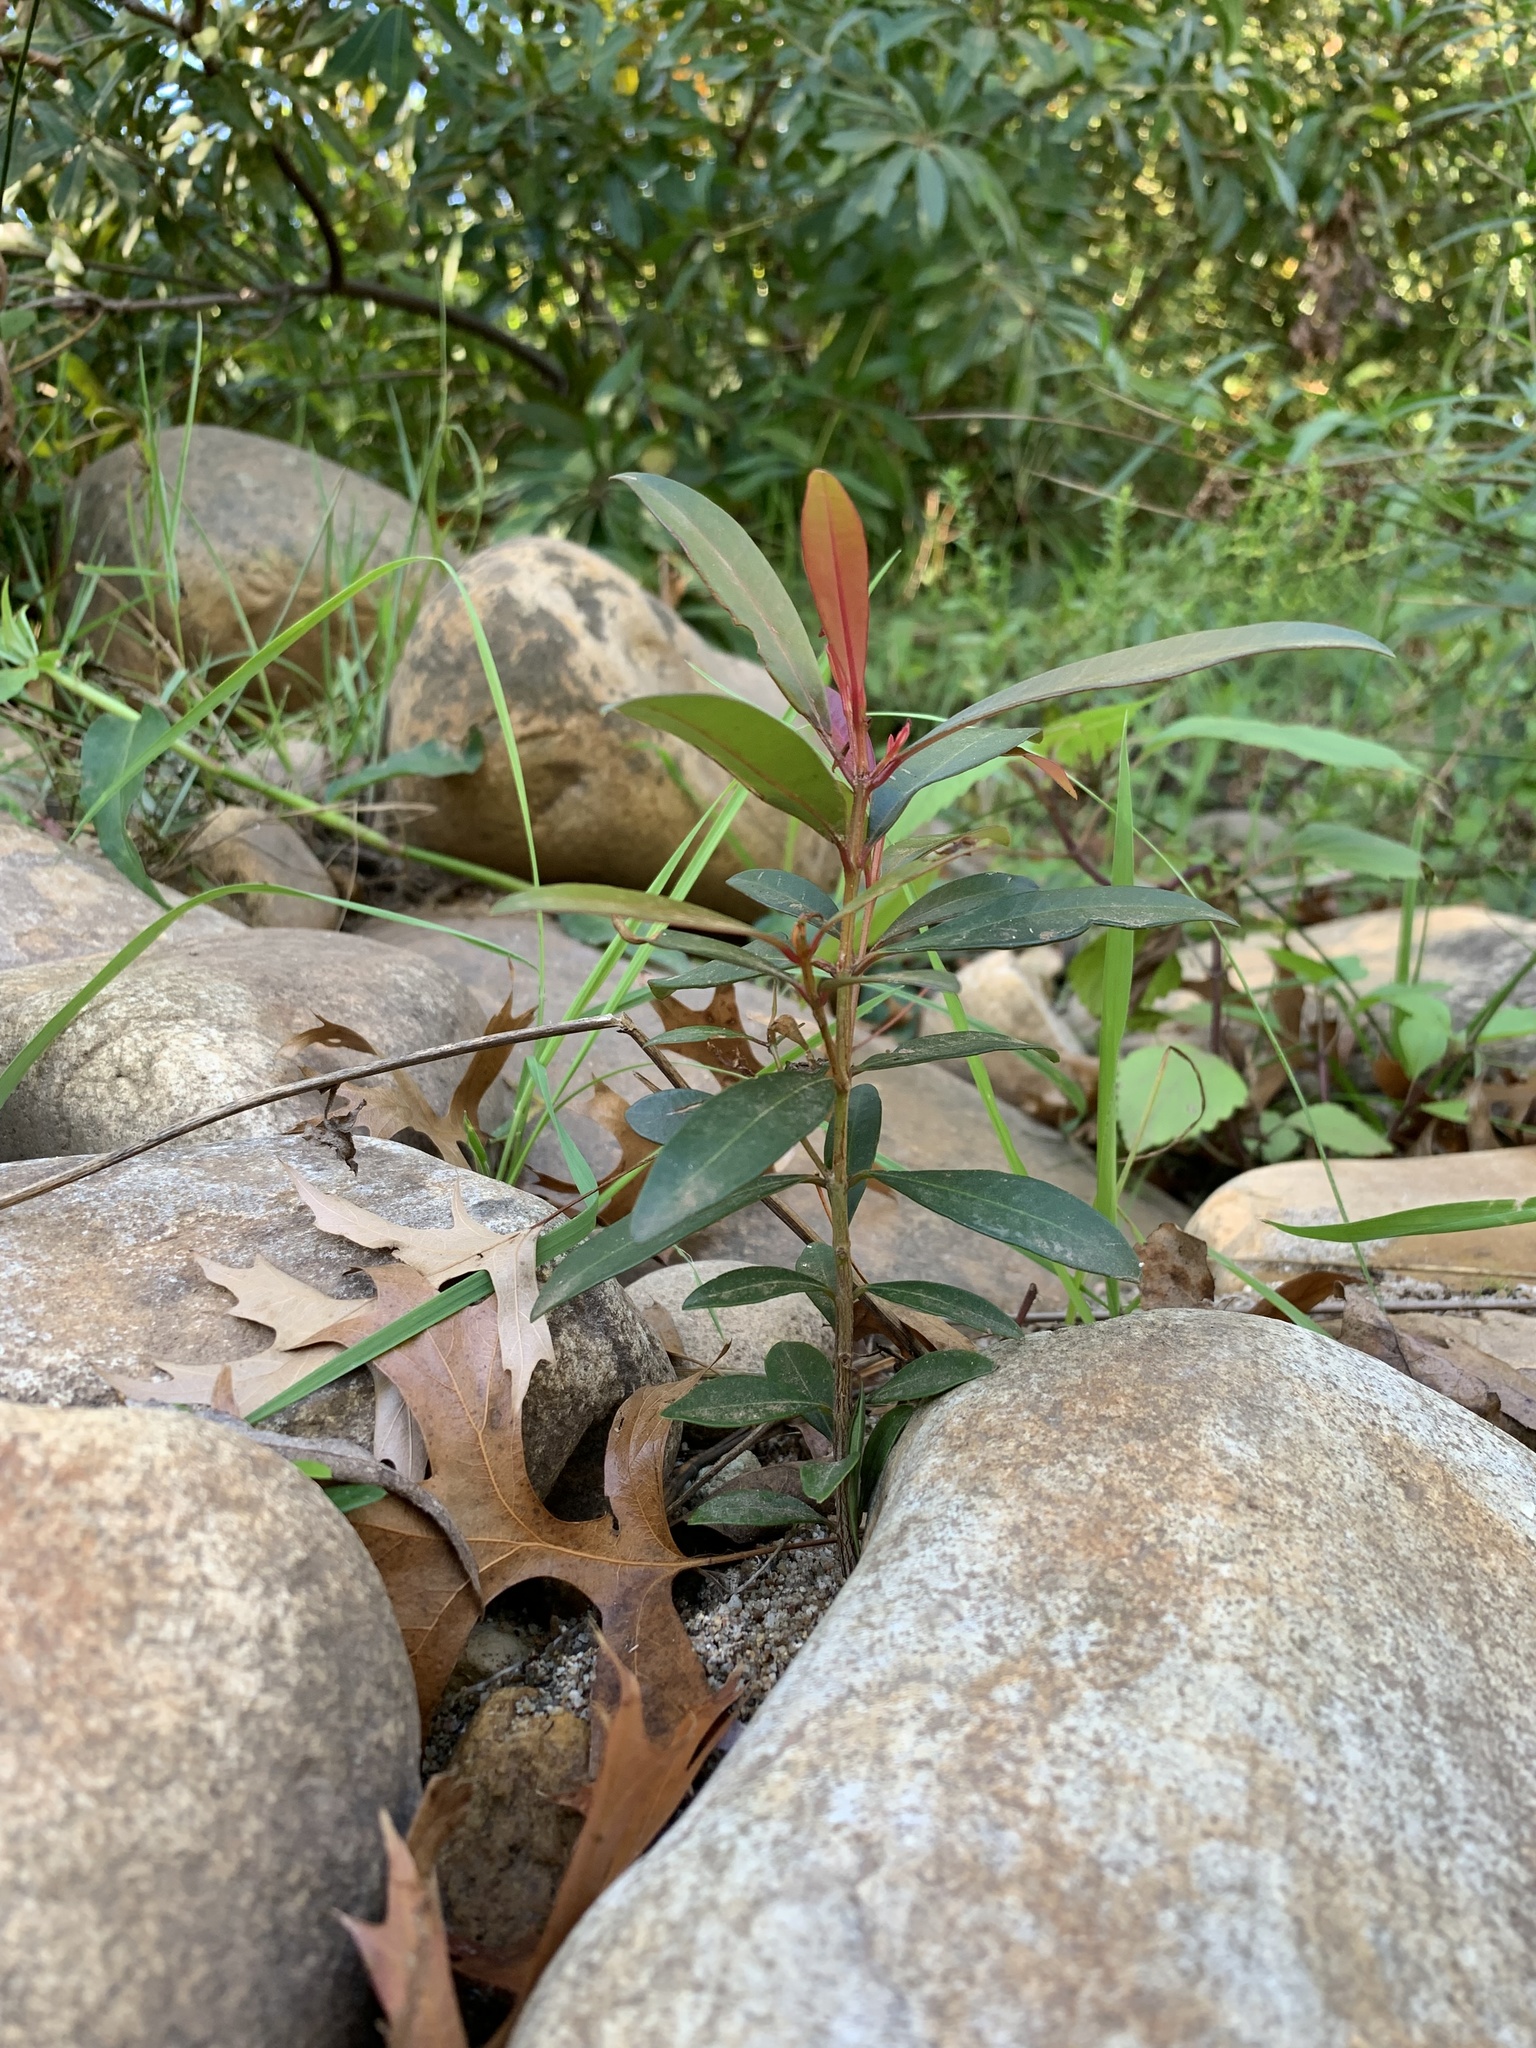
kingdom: Plantae
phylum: Tracheophyta
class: Magnoliopsida
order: Myrtales
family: Myrtaceae
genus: Syzygium
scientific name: Syzygium australe
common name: Australian brush-cherry
